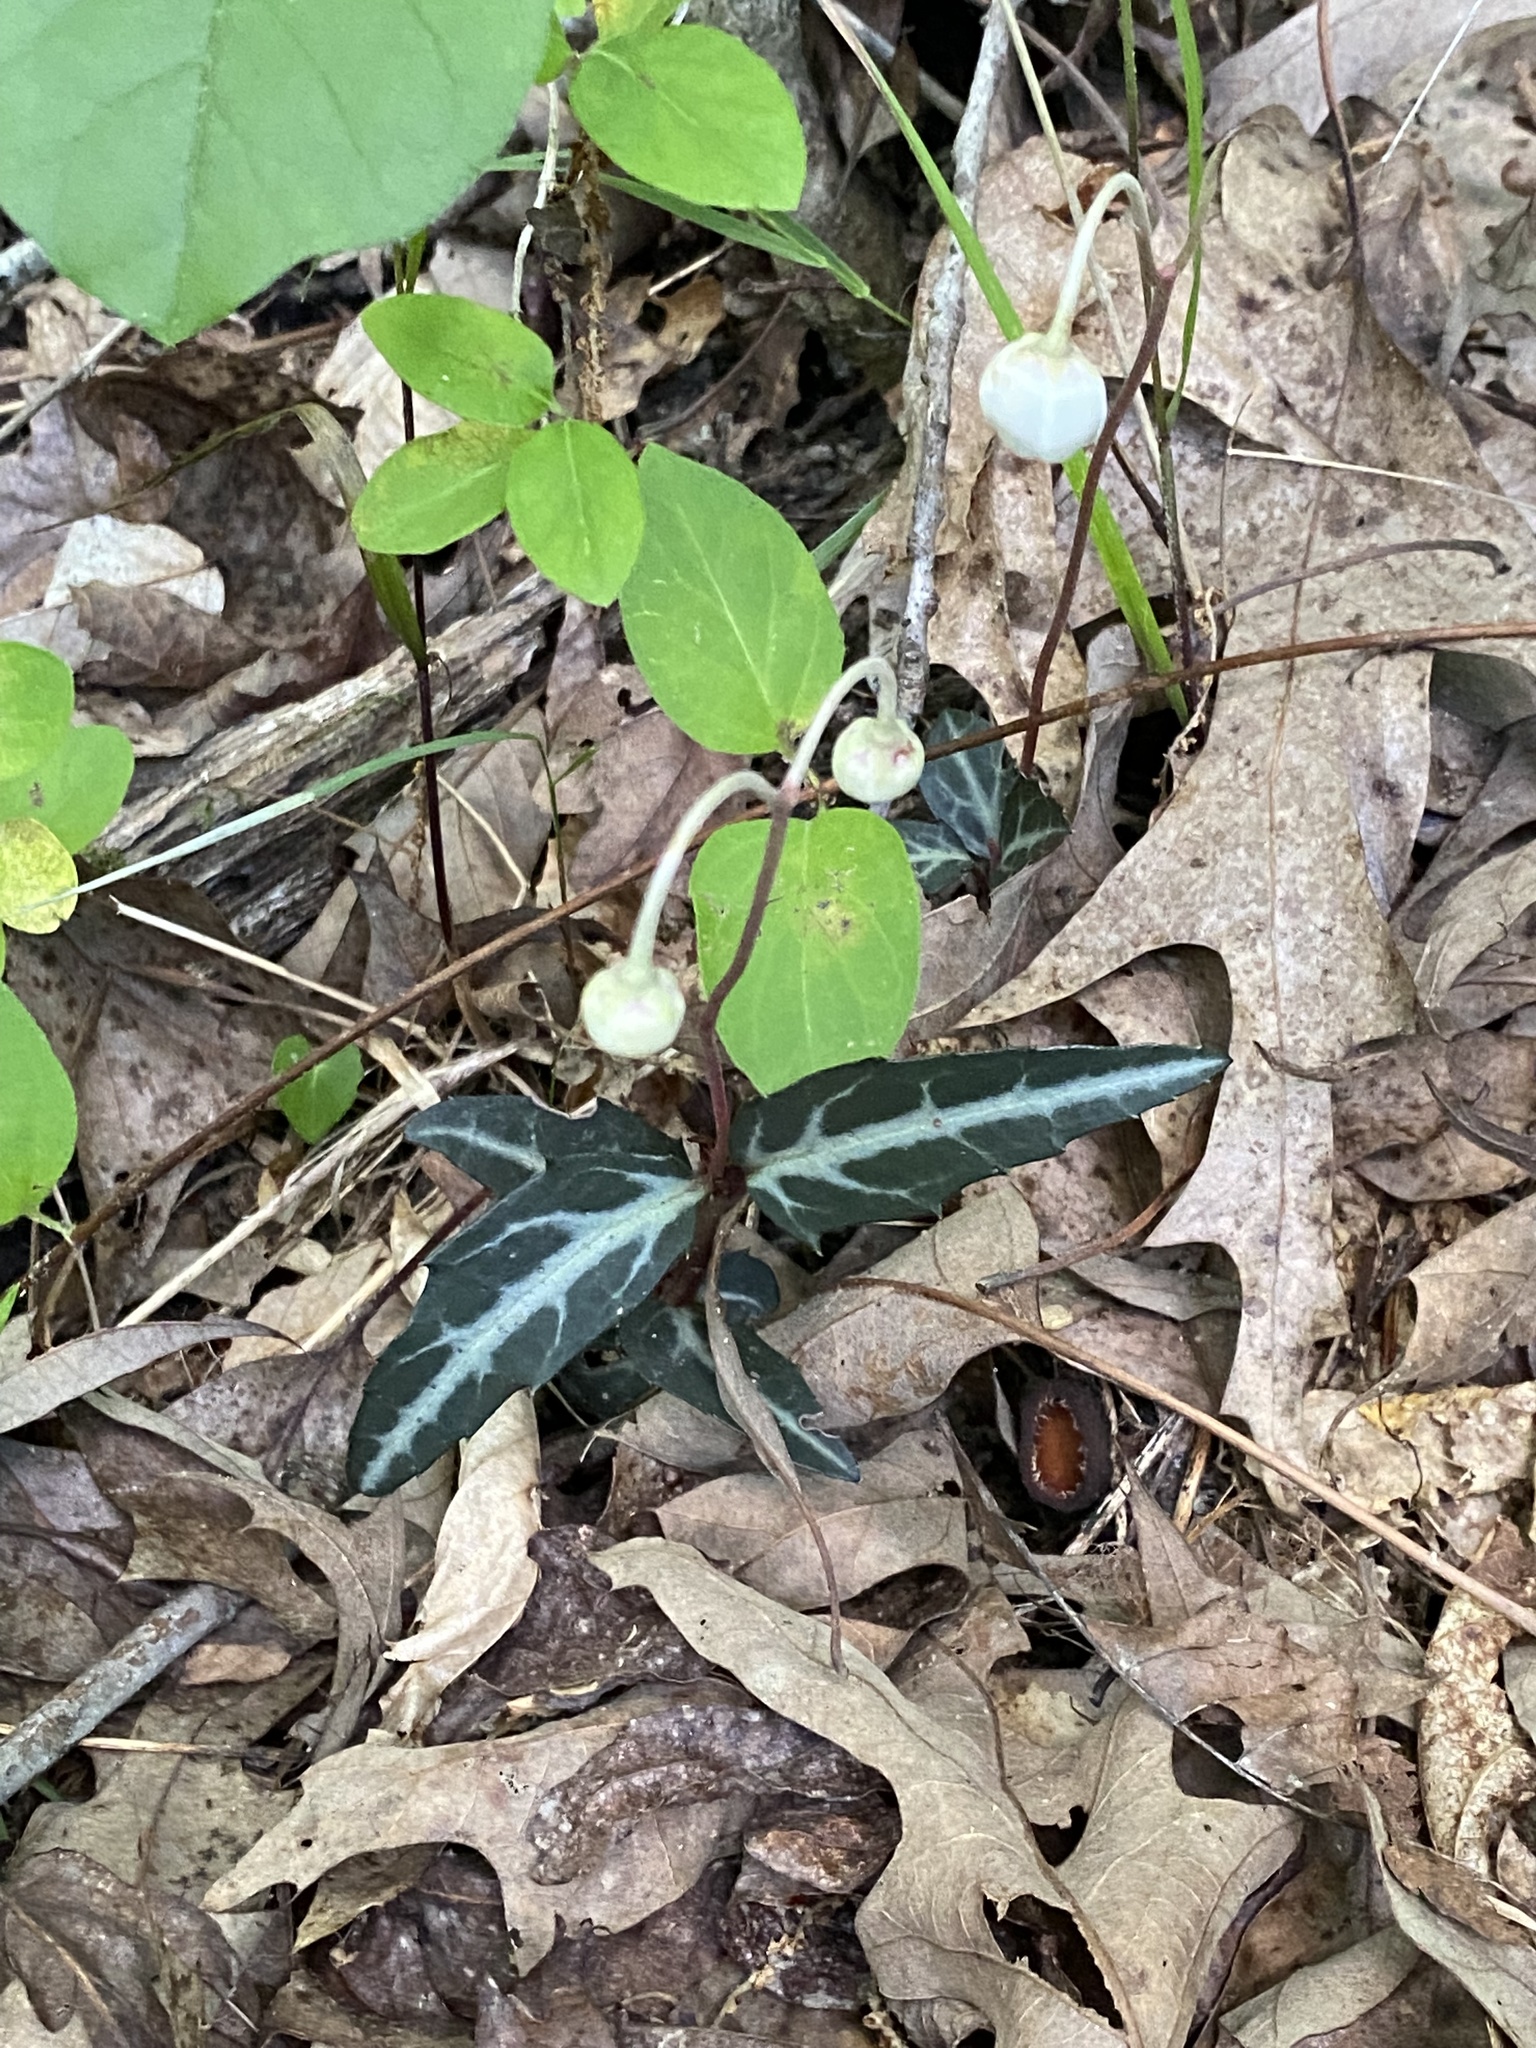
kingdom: Plantae
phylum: Tracheophyta
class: Magnoliopsida
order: Ericales
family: Ericaceae
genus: Chimaphila
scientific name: Chimaphila maculata
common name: Spotted pipsissewa
